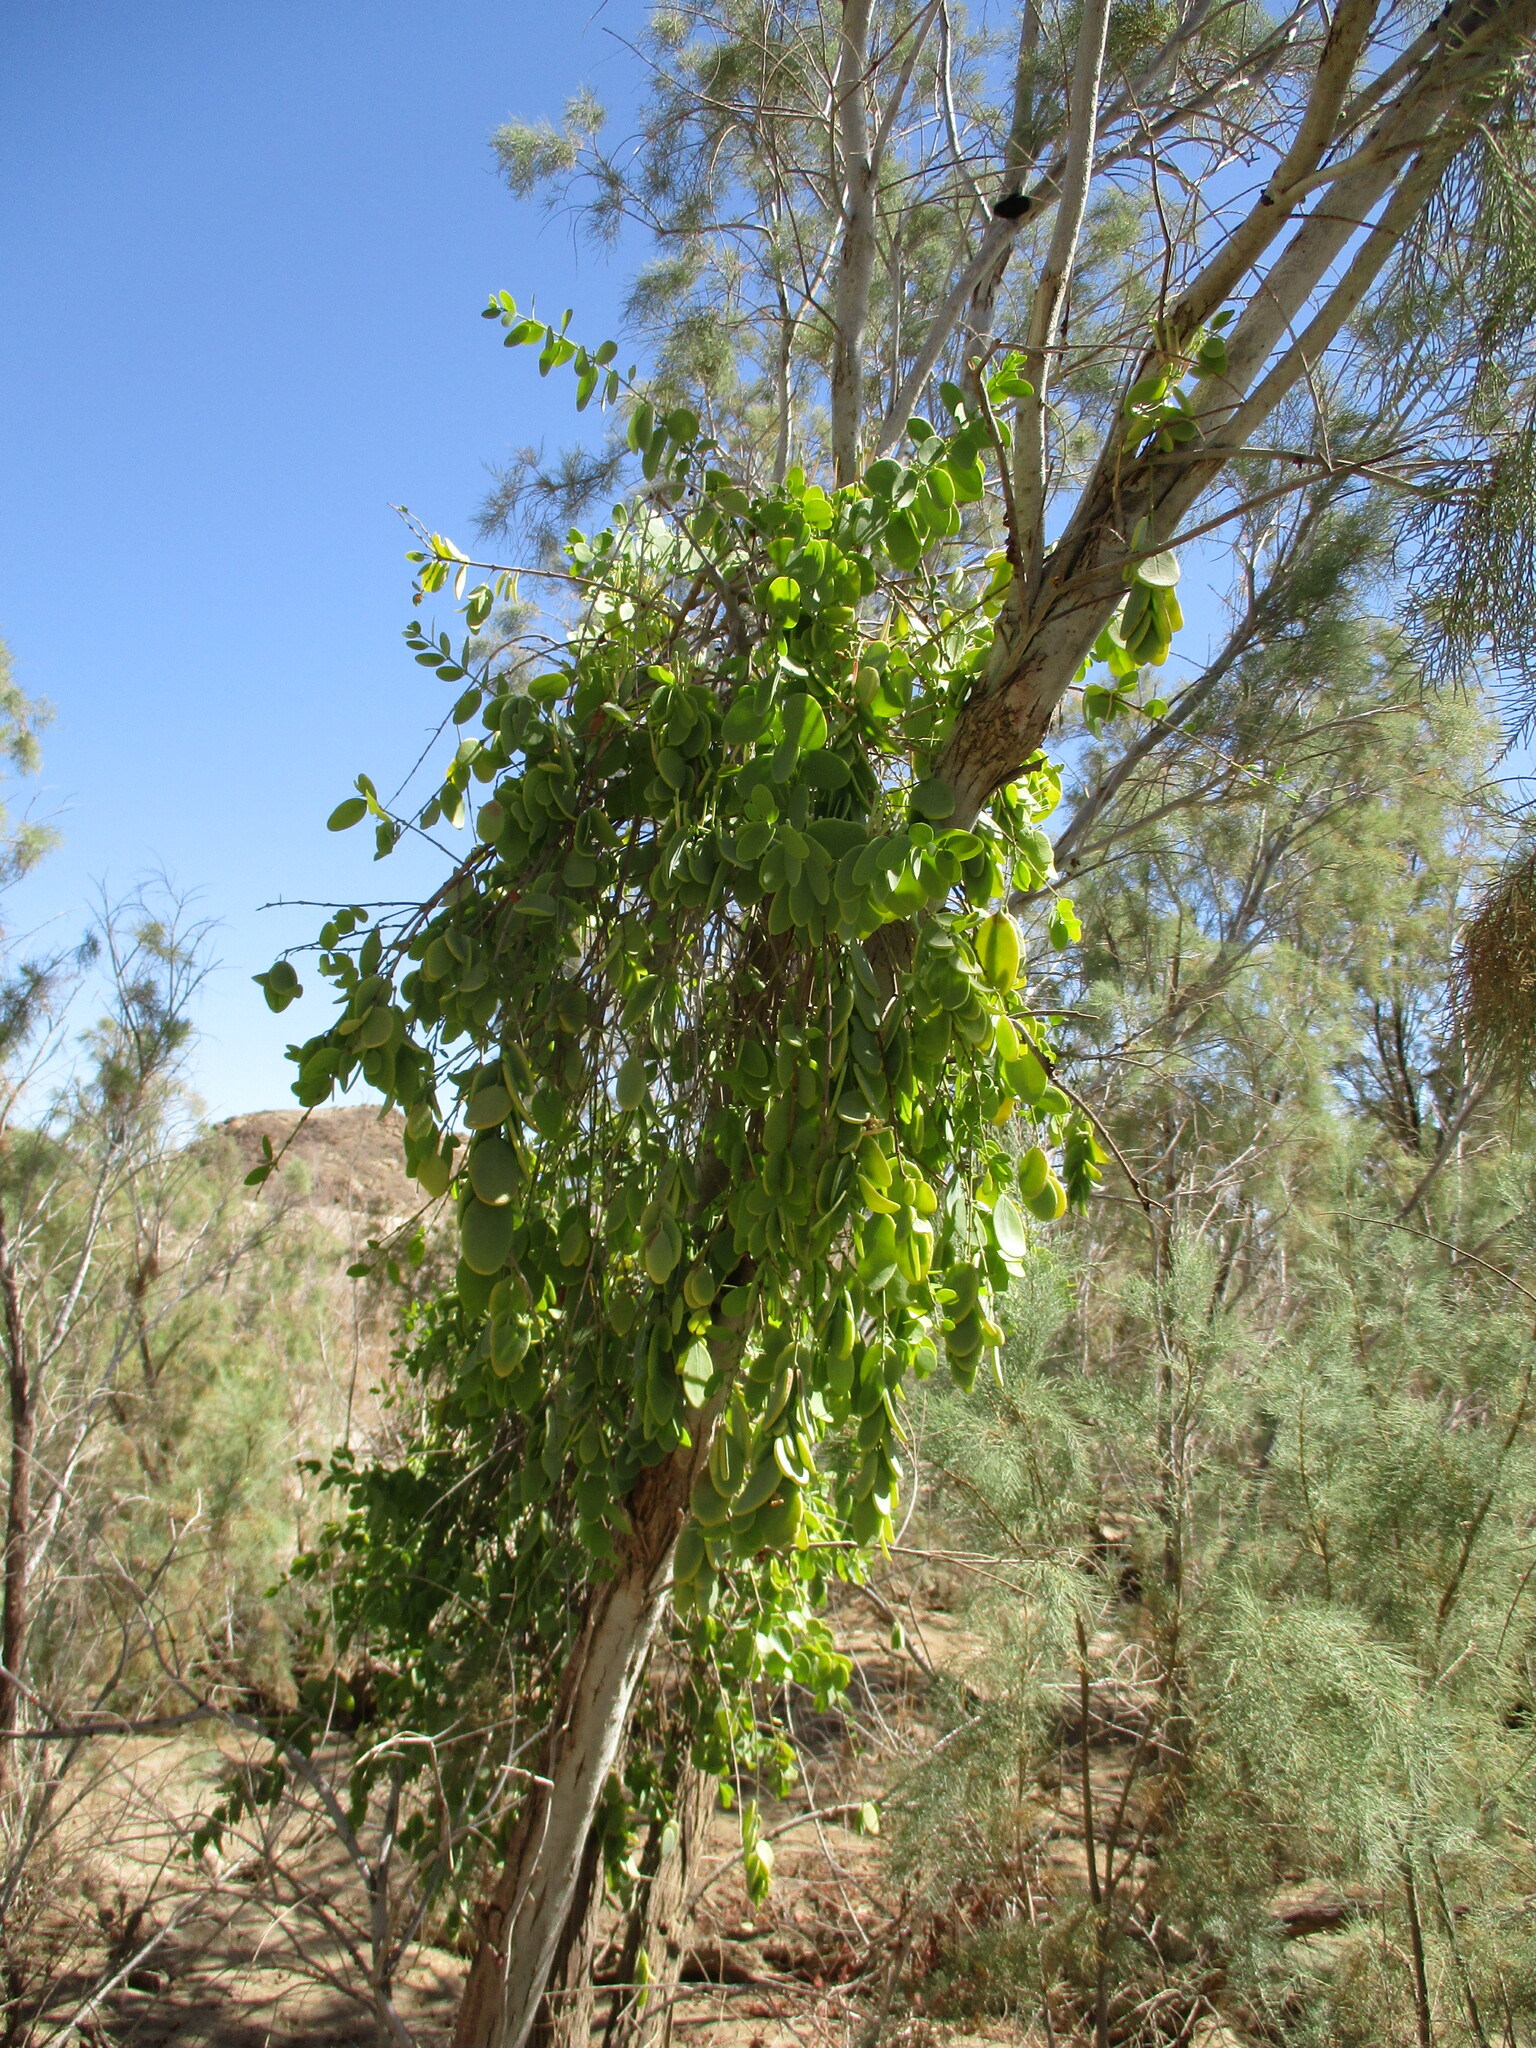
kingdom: Plantae
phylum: Tracheophyta
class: Magnoliopsida
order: Santalales
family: Loranthaceae
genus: Tapinanthus
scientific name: Tapinanthus oleifolius
